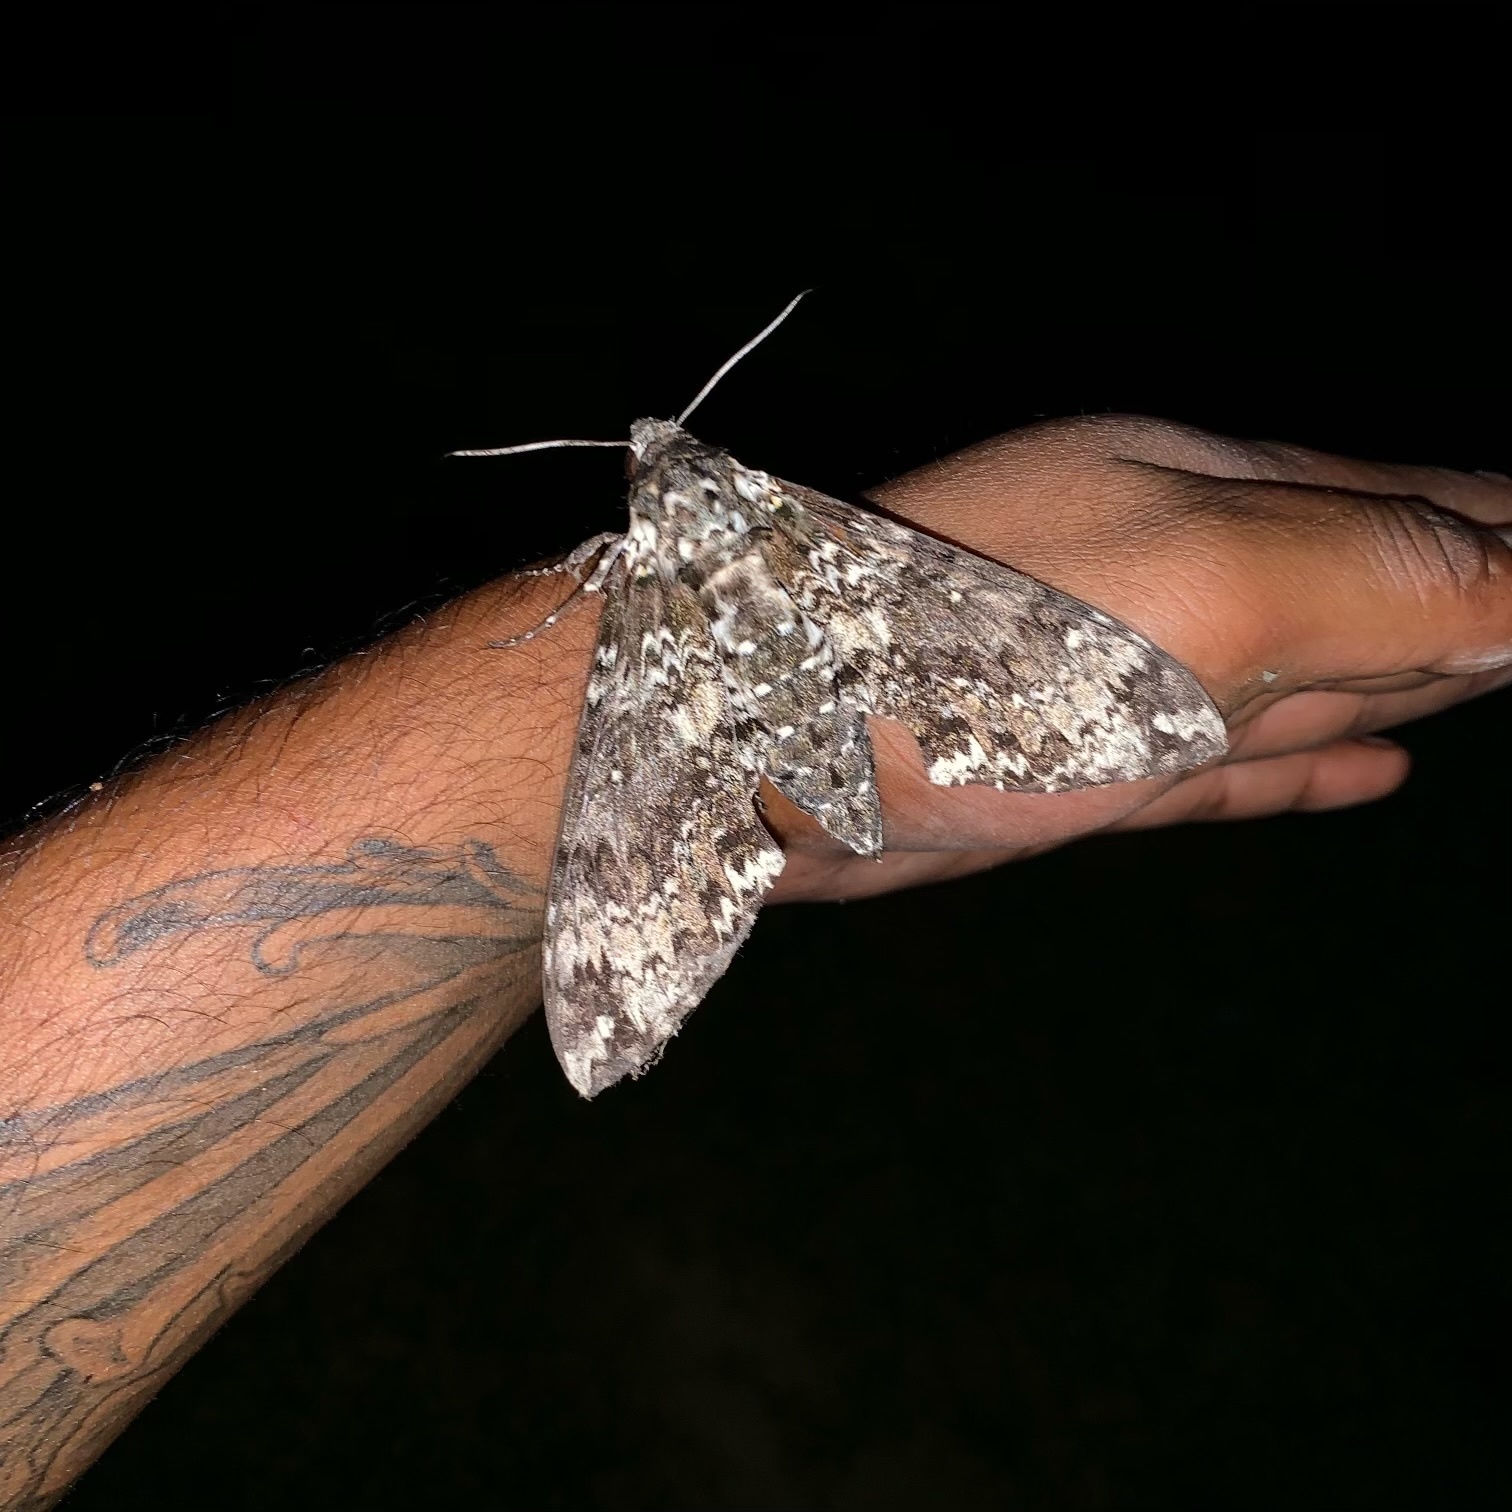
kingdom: Animalia
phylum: Arthropoda
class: Insecta
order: Lepidoptera
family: Sphingidae
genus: Manduca
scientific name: Manduca rustica
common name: Rustic sphinx
